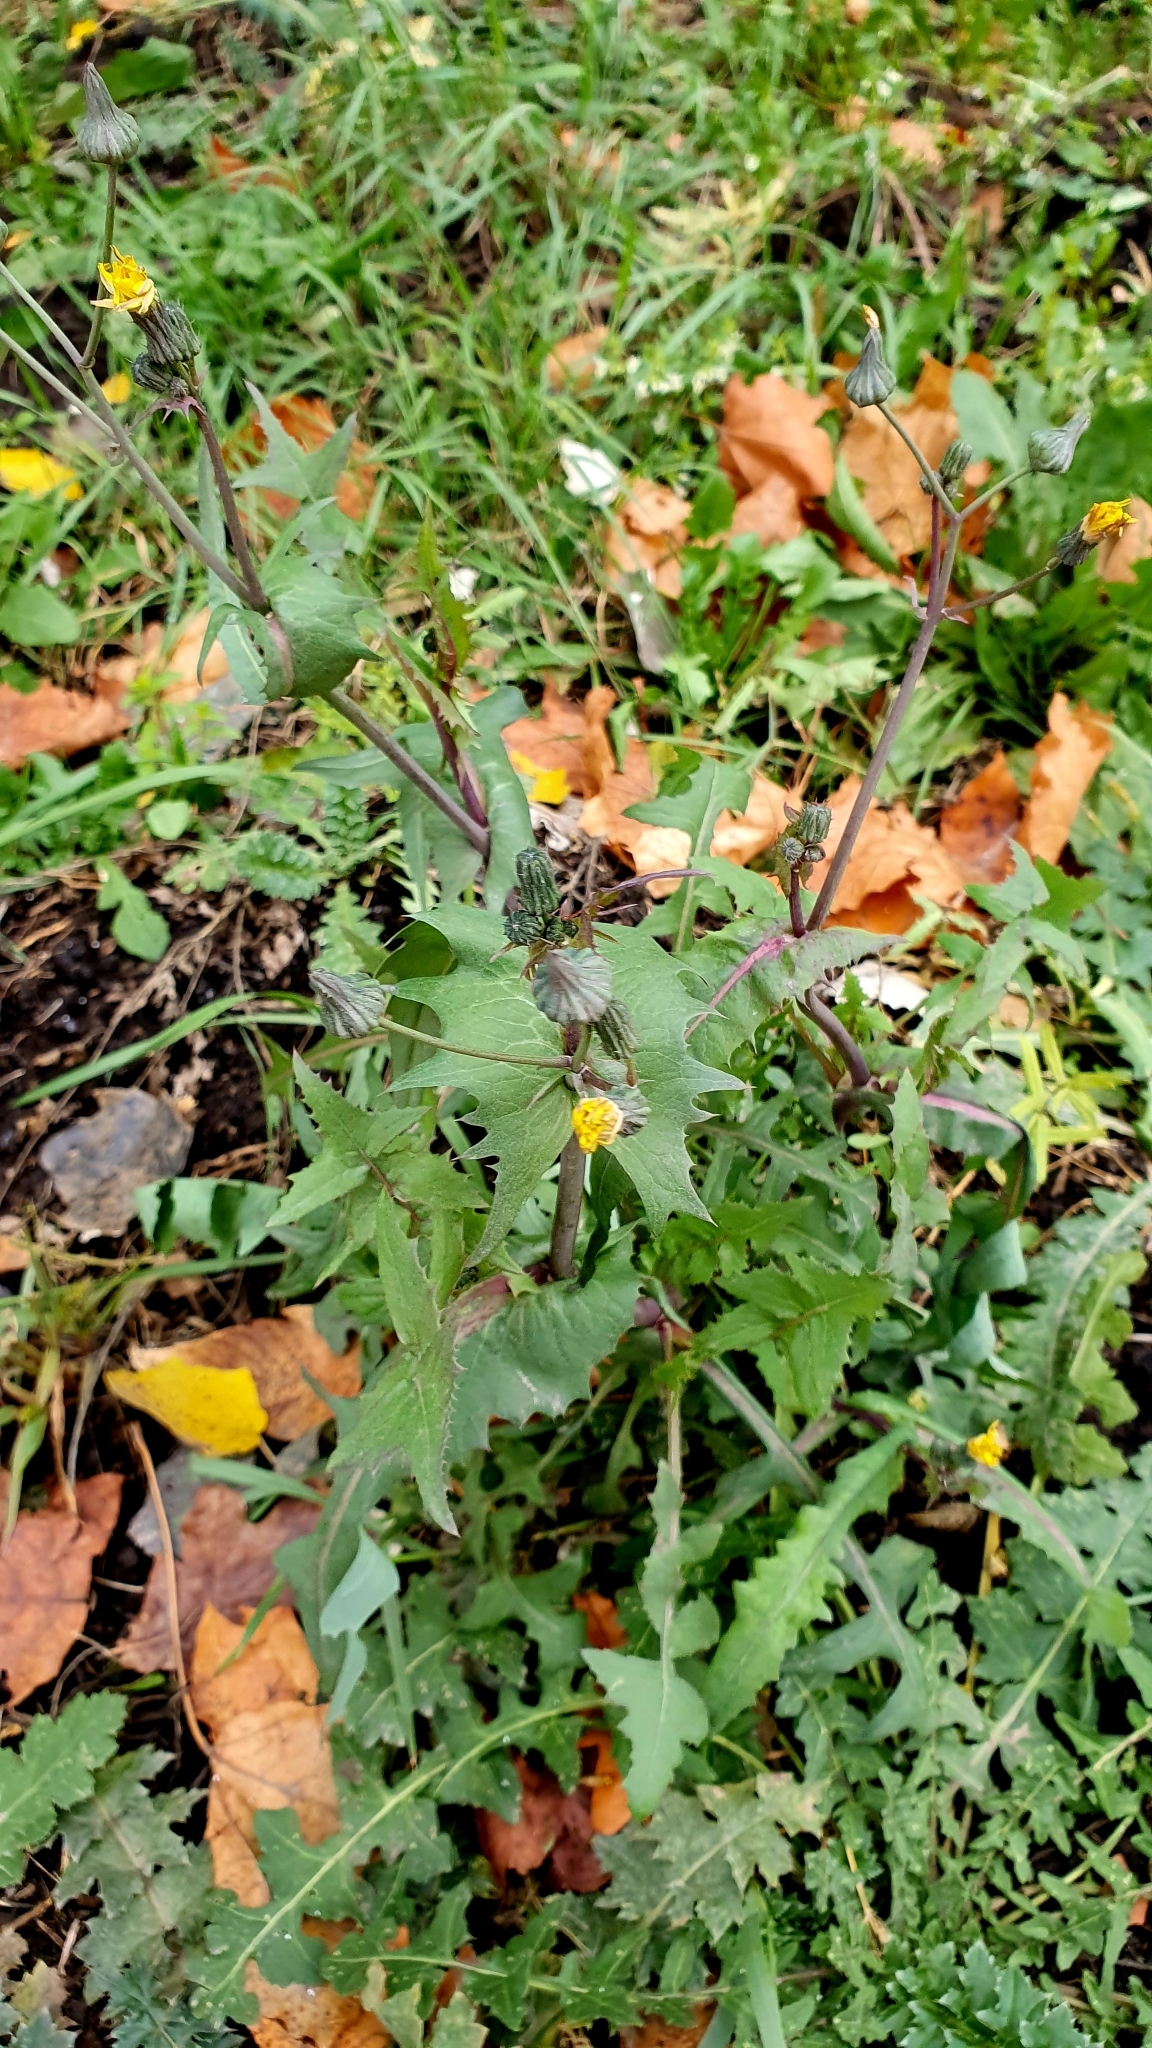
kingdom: Plantae
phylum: Tracheophyta
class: Magnoliopsida
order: Asterales
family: Asteraceae
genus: Sonchus
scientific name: Sonchus oleraceus
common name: Common sowthistle
